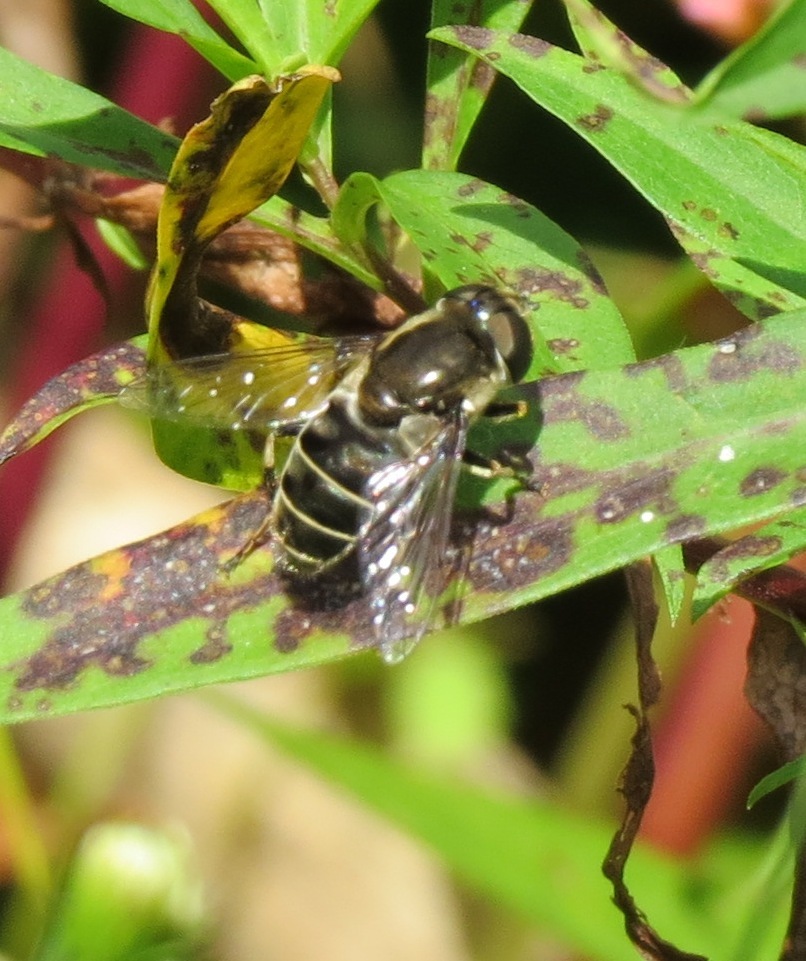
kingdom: Animalia
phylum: Arthropoda
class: Insecta
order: Diptera
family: Syrphidae
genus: Eristalis
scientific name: Eristalis dimidiata
